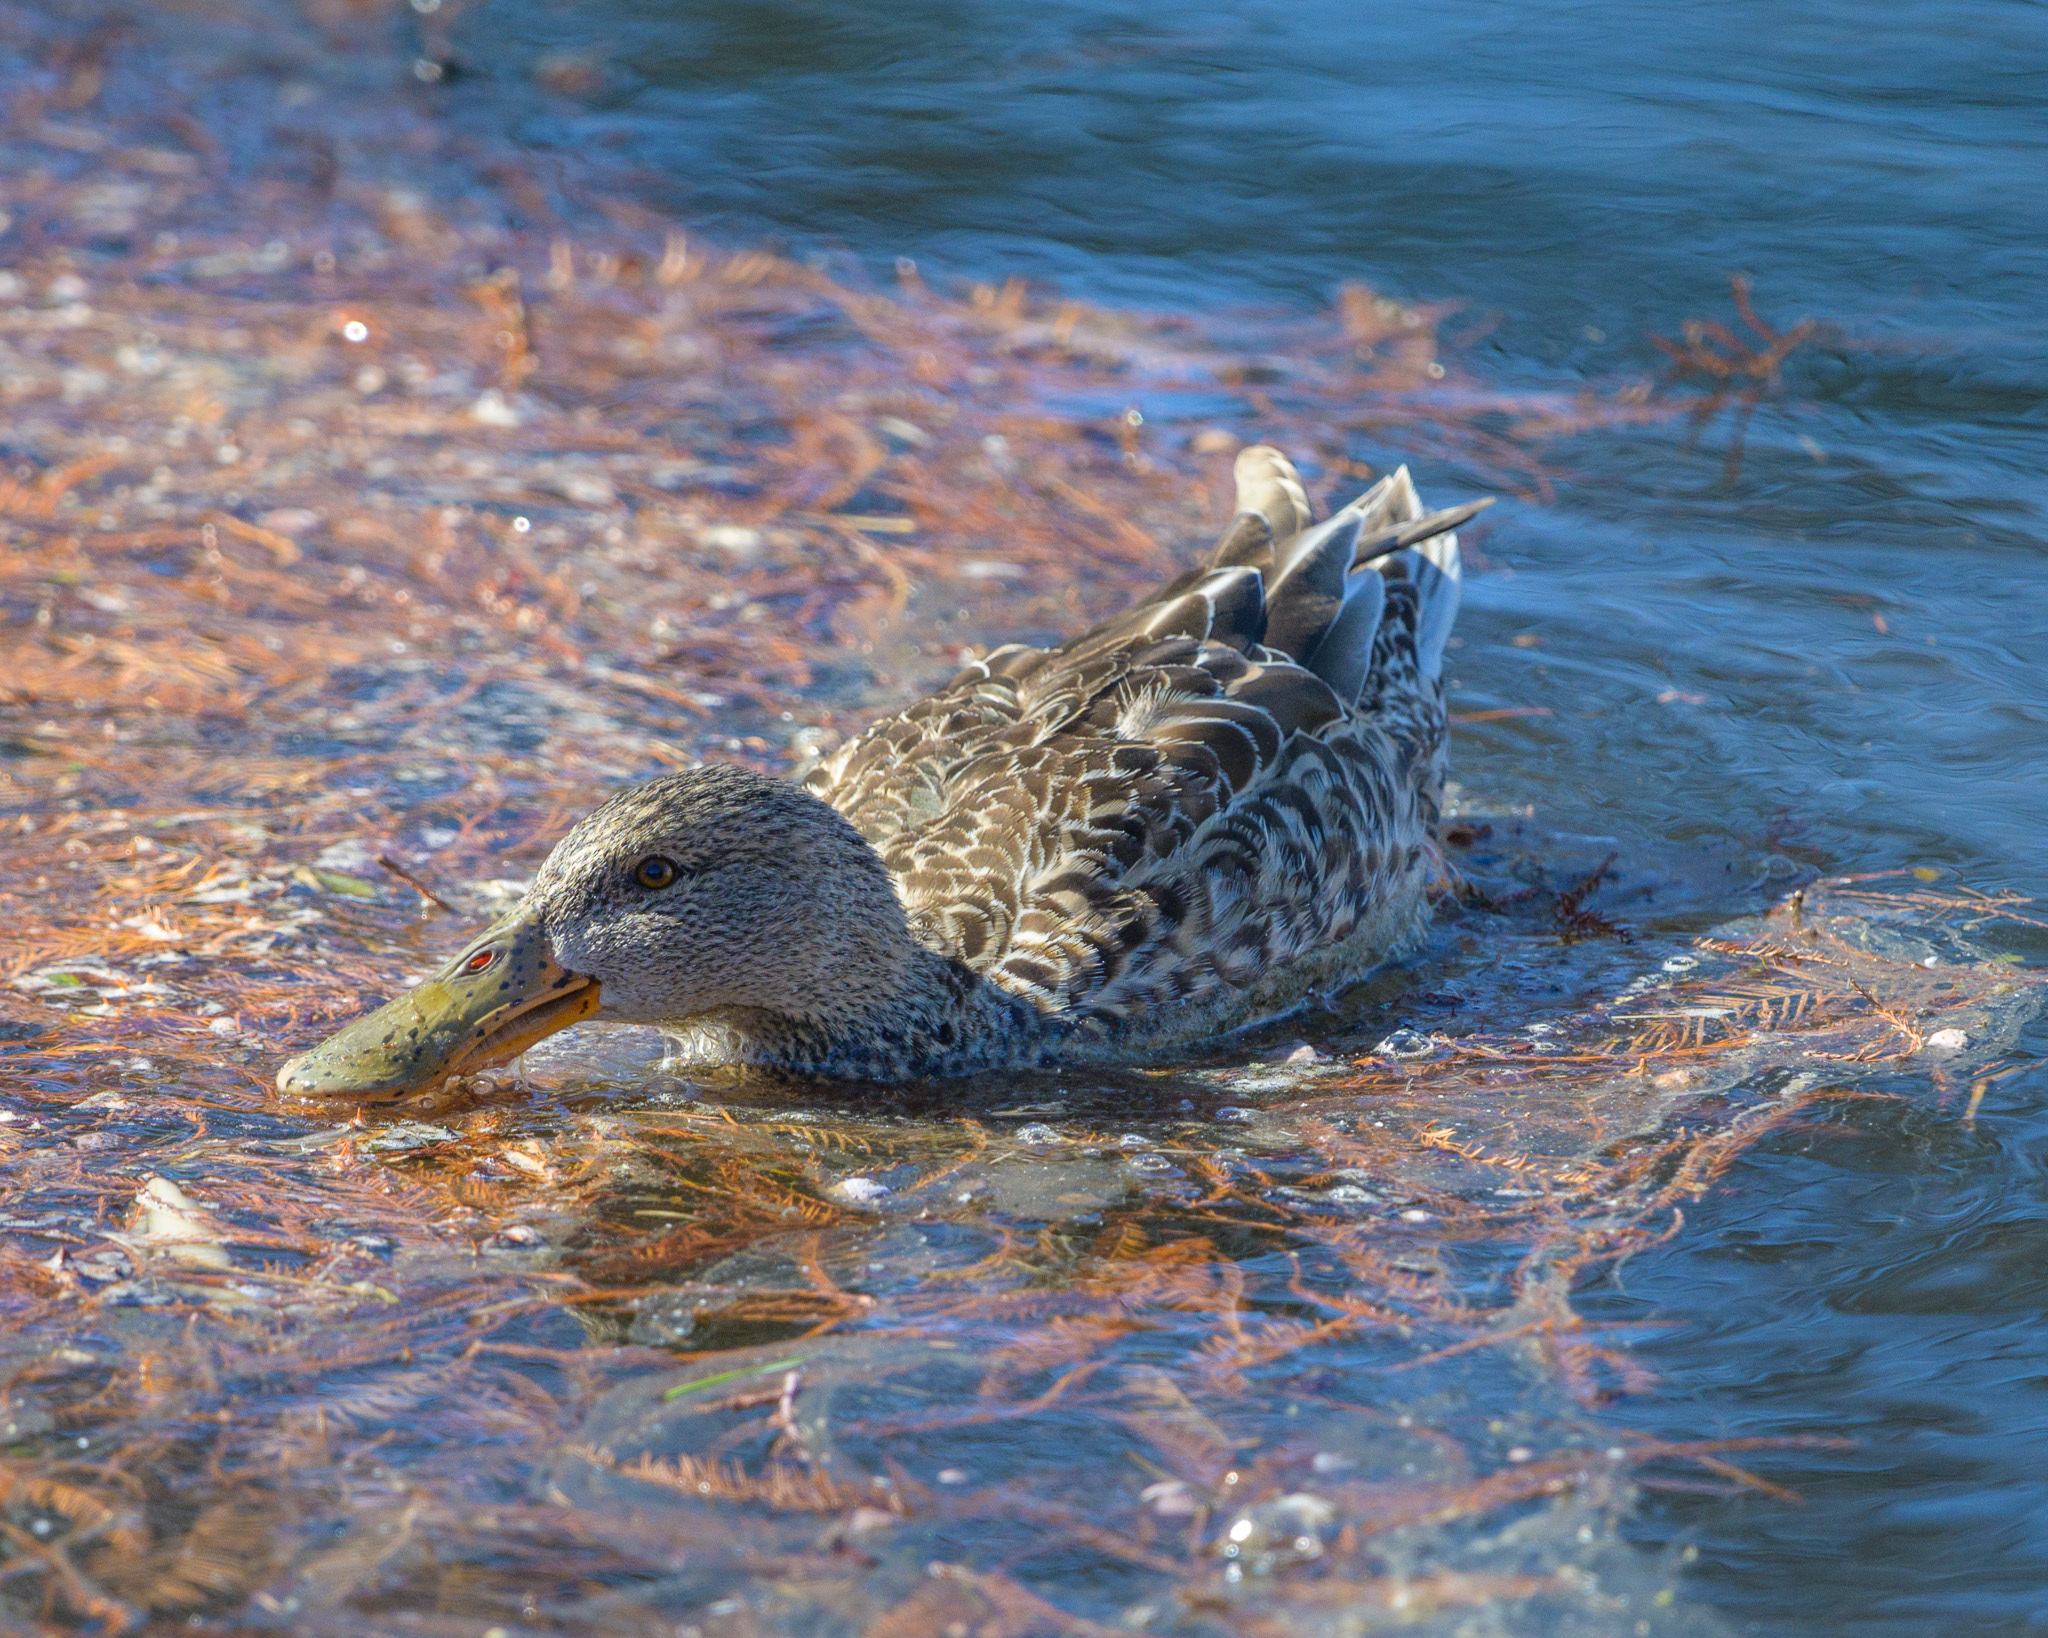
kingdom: Animalia
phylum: Chordata
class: Aves
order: Anseriformes
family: Anatidae
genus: Spatula
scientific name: Spatula clypeata
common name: Northern shoveler
